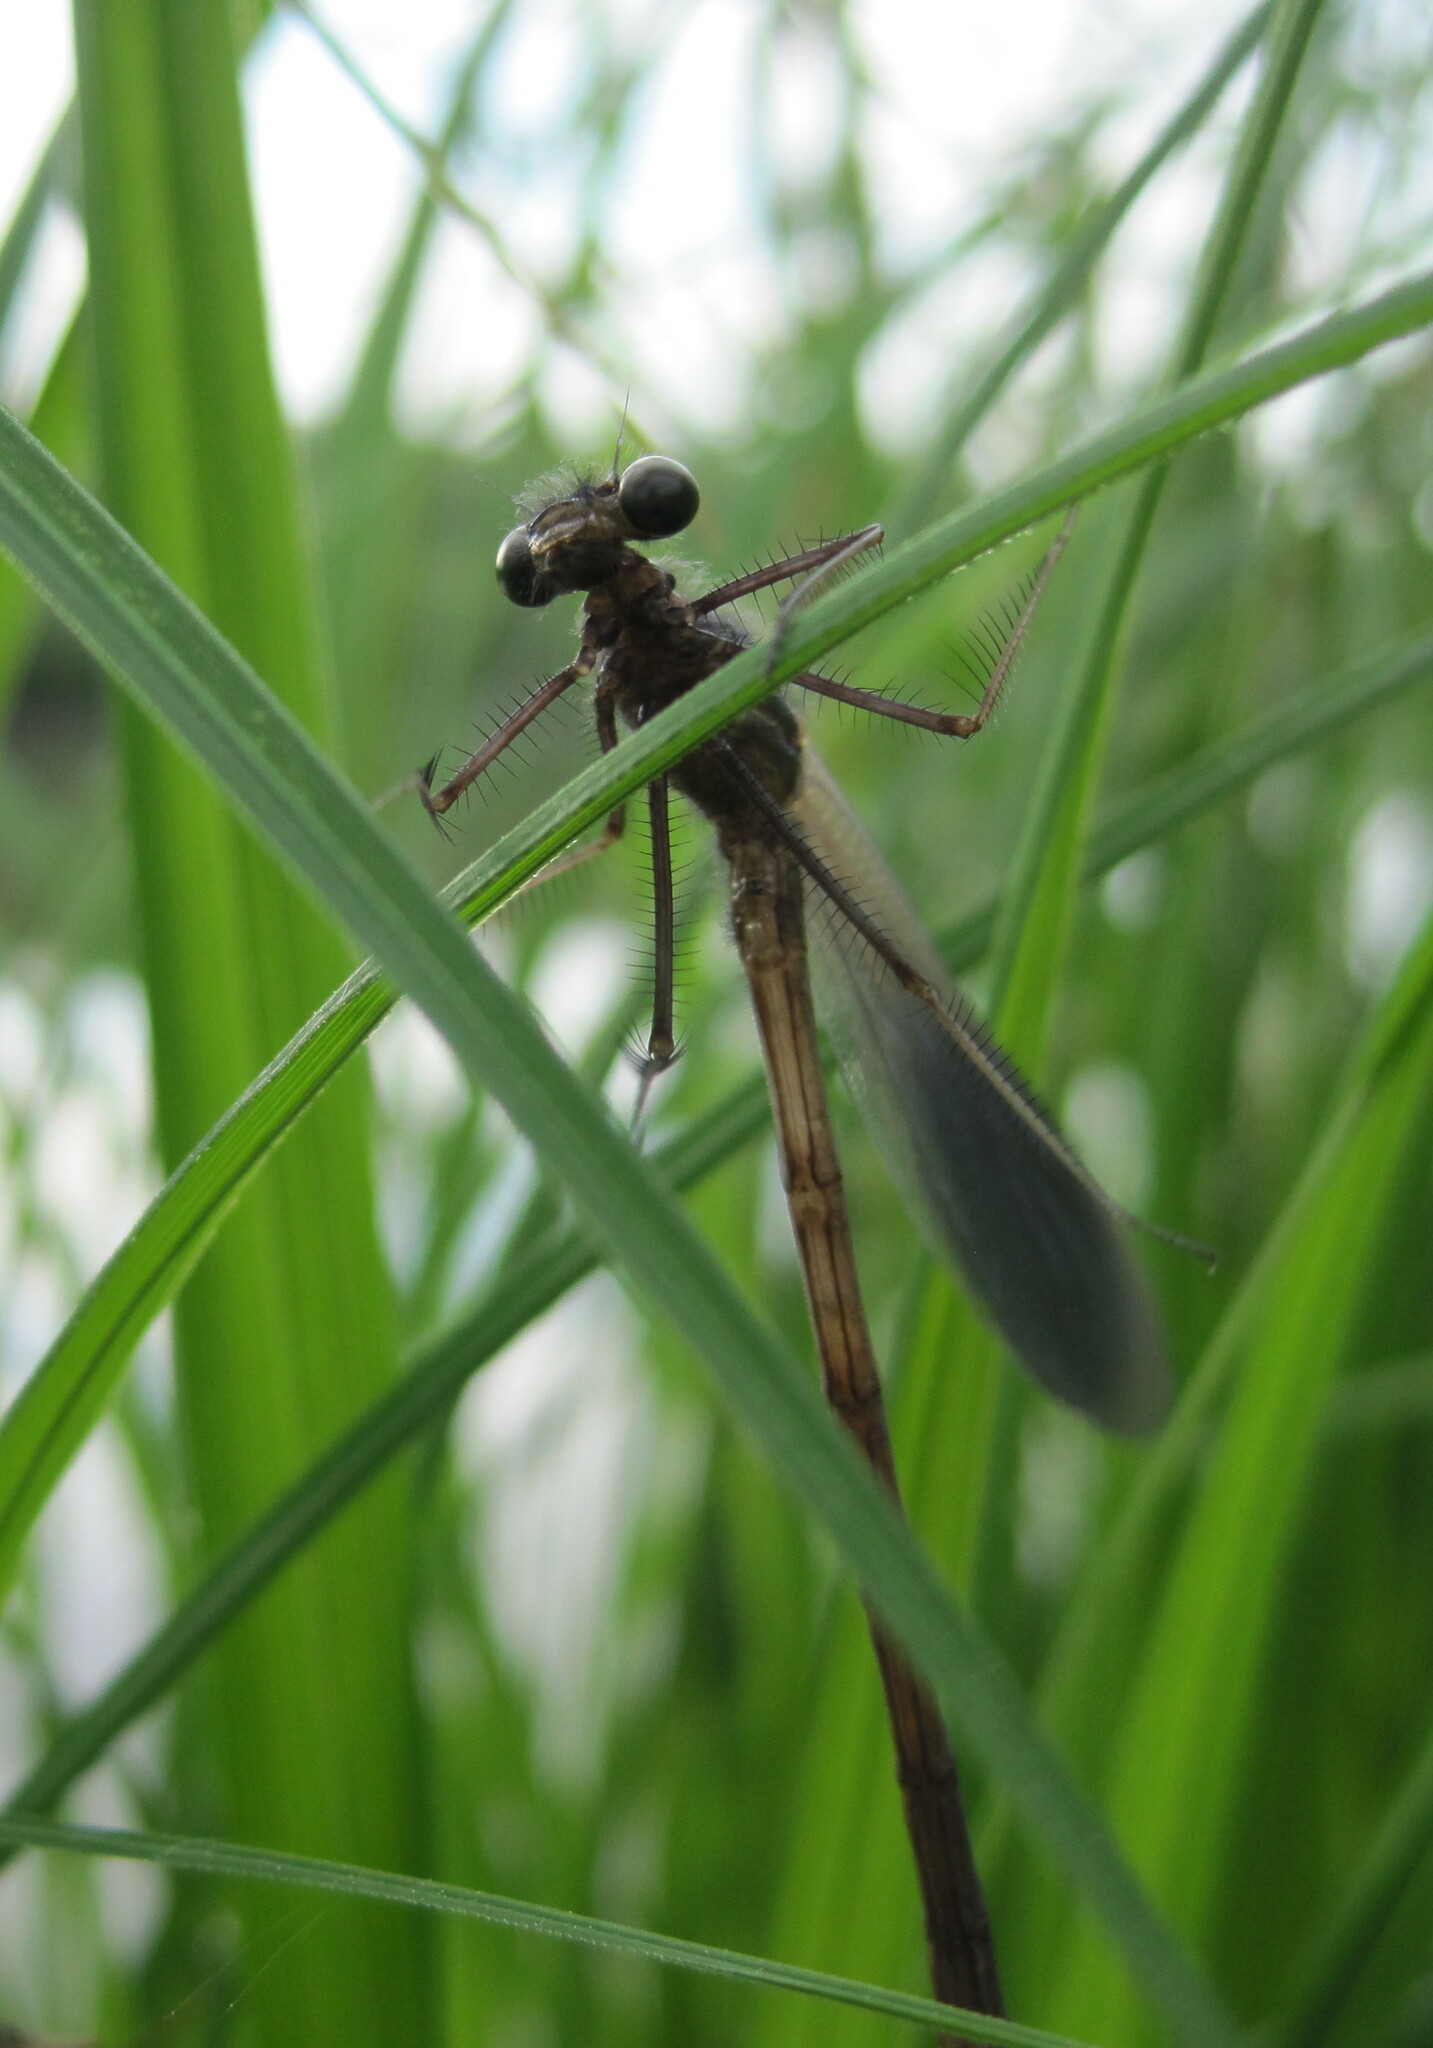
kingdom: Animalia
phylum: Arthropoda
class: Insecta
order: Odonata
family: Calopterygidae
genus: Calopteryx
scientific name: Calopteryx splendens
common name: Banded demoiselle
